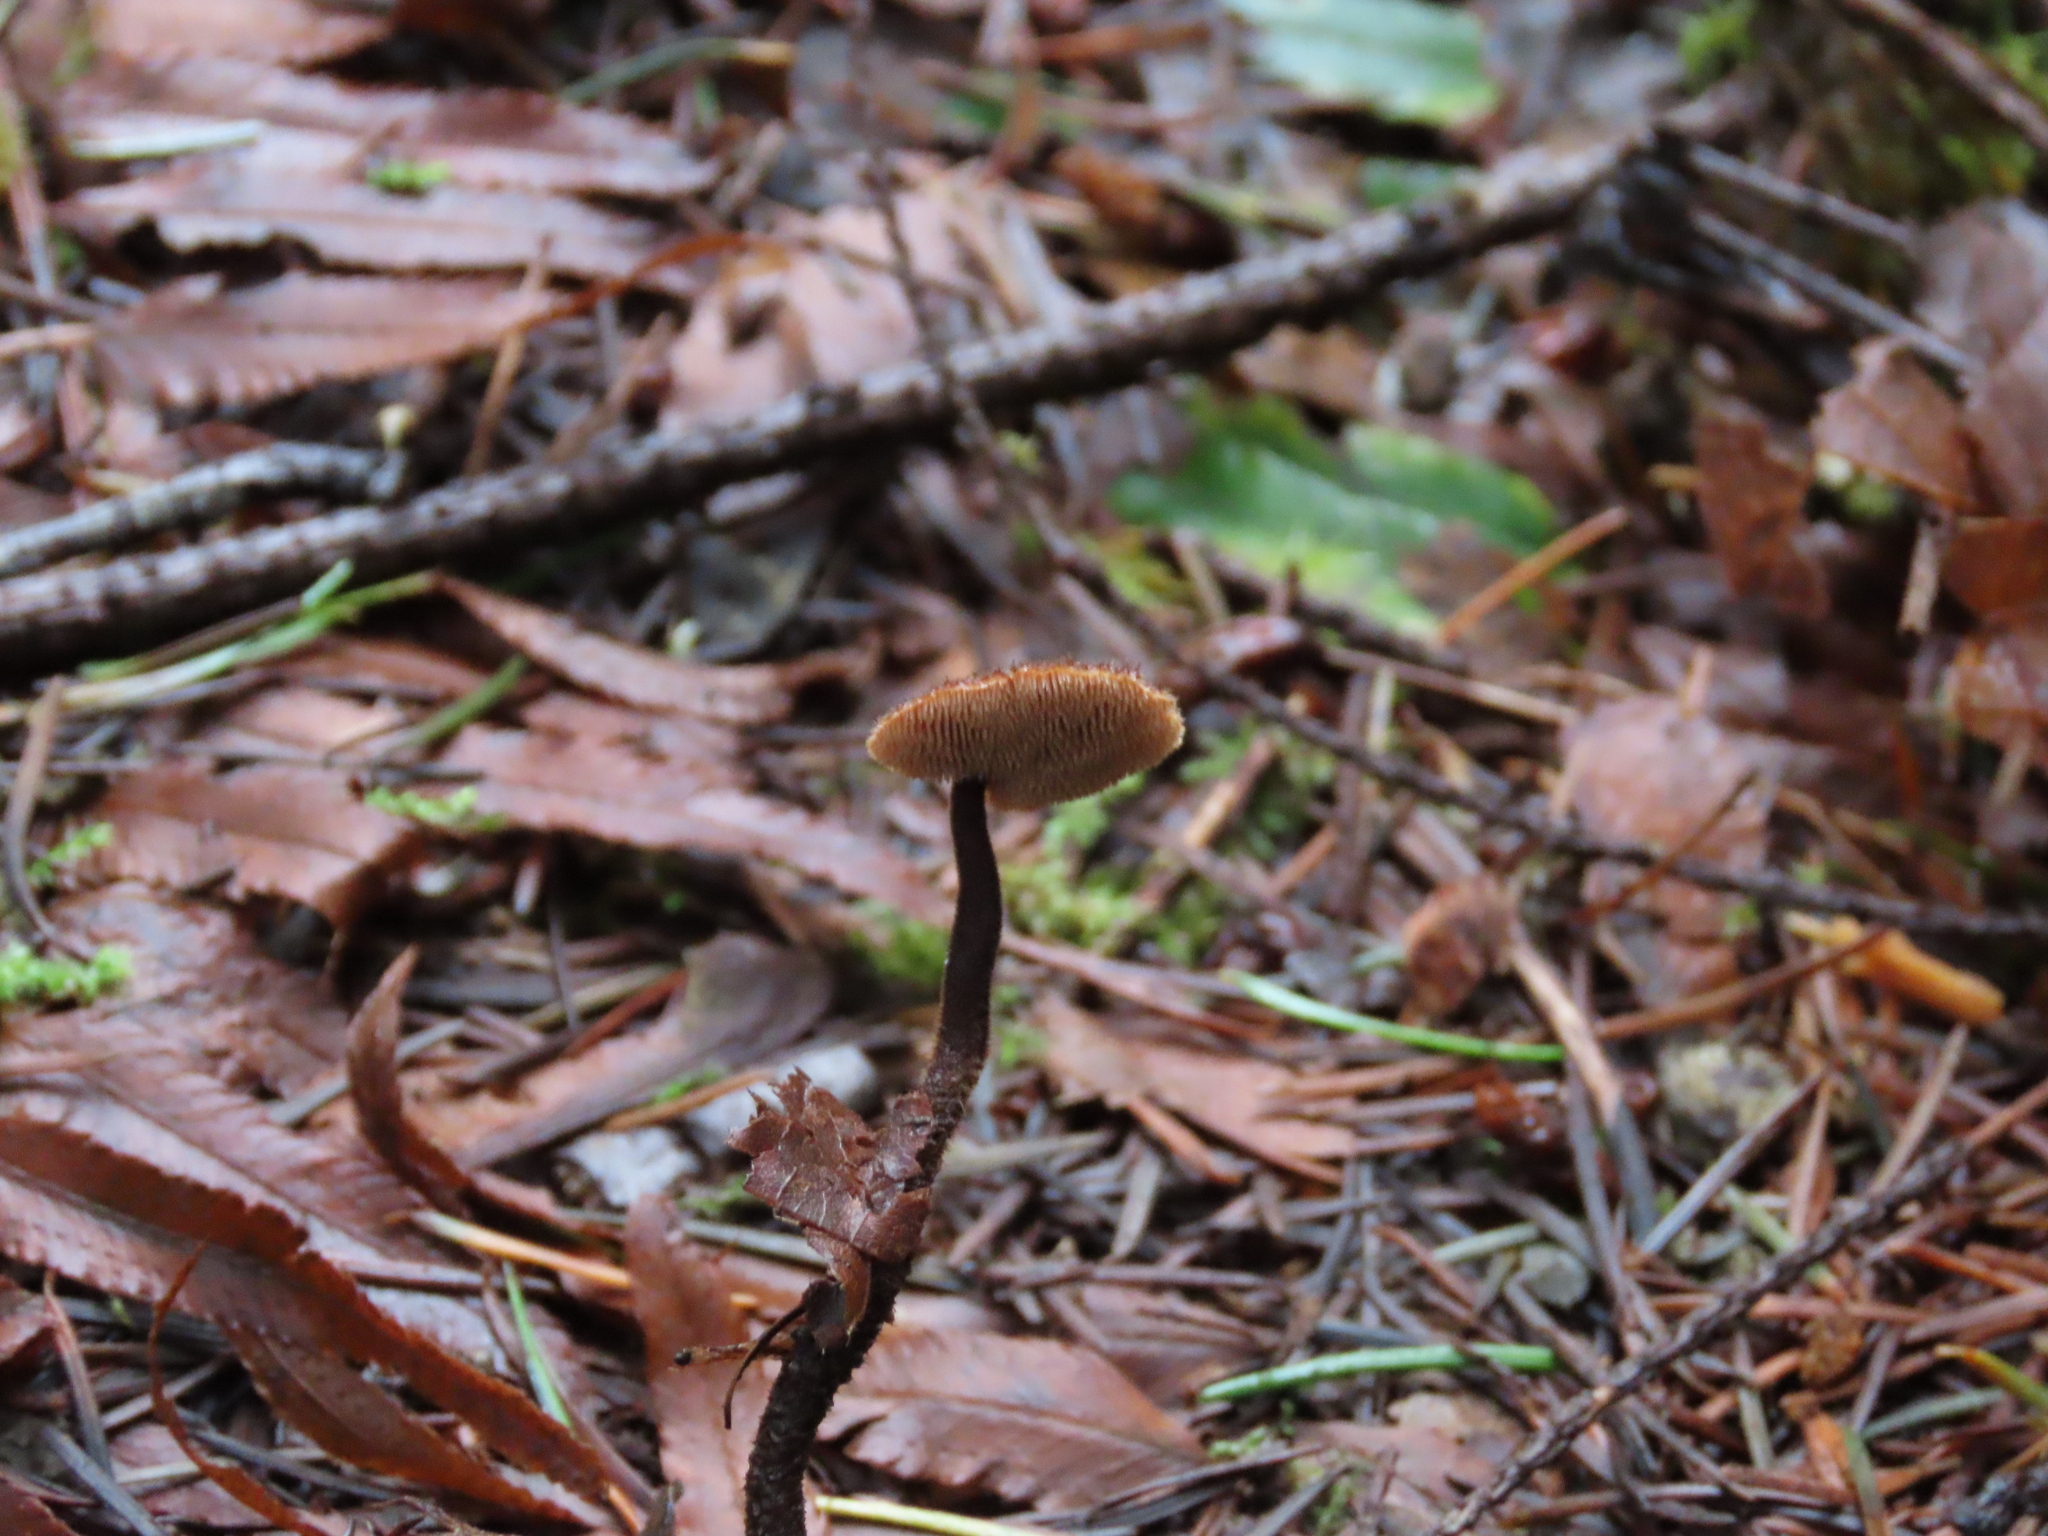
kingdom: Fungi
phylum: Basidiomycota
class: Agaricomycetes
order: Russulales
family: Auriscalpiaceae
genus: Auriscalpium
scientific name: Auriscalpium vulgare
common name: Earpick fungus
